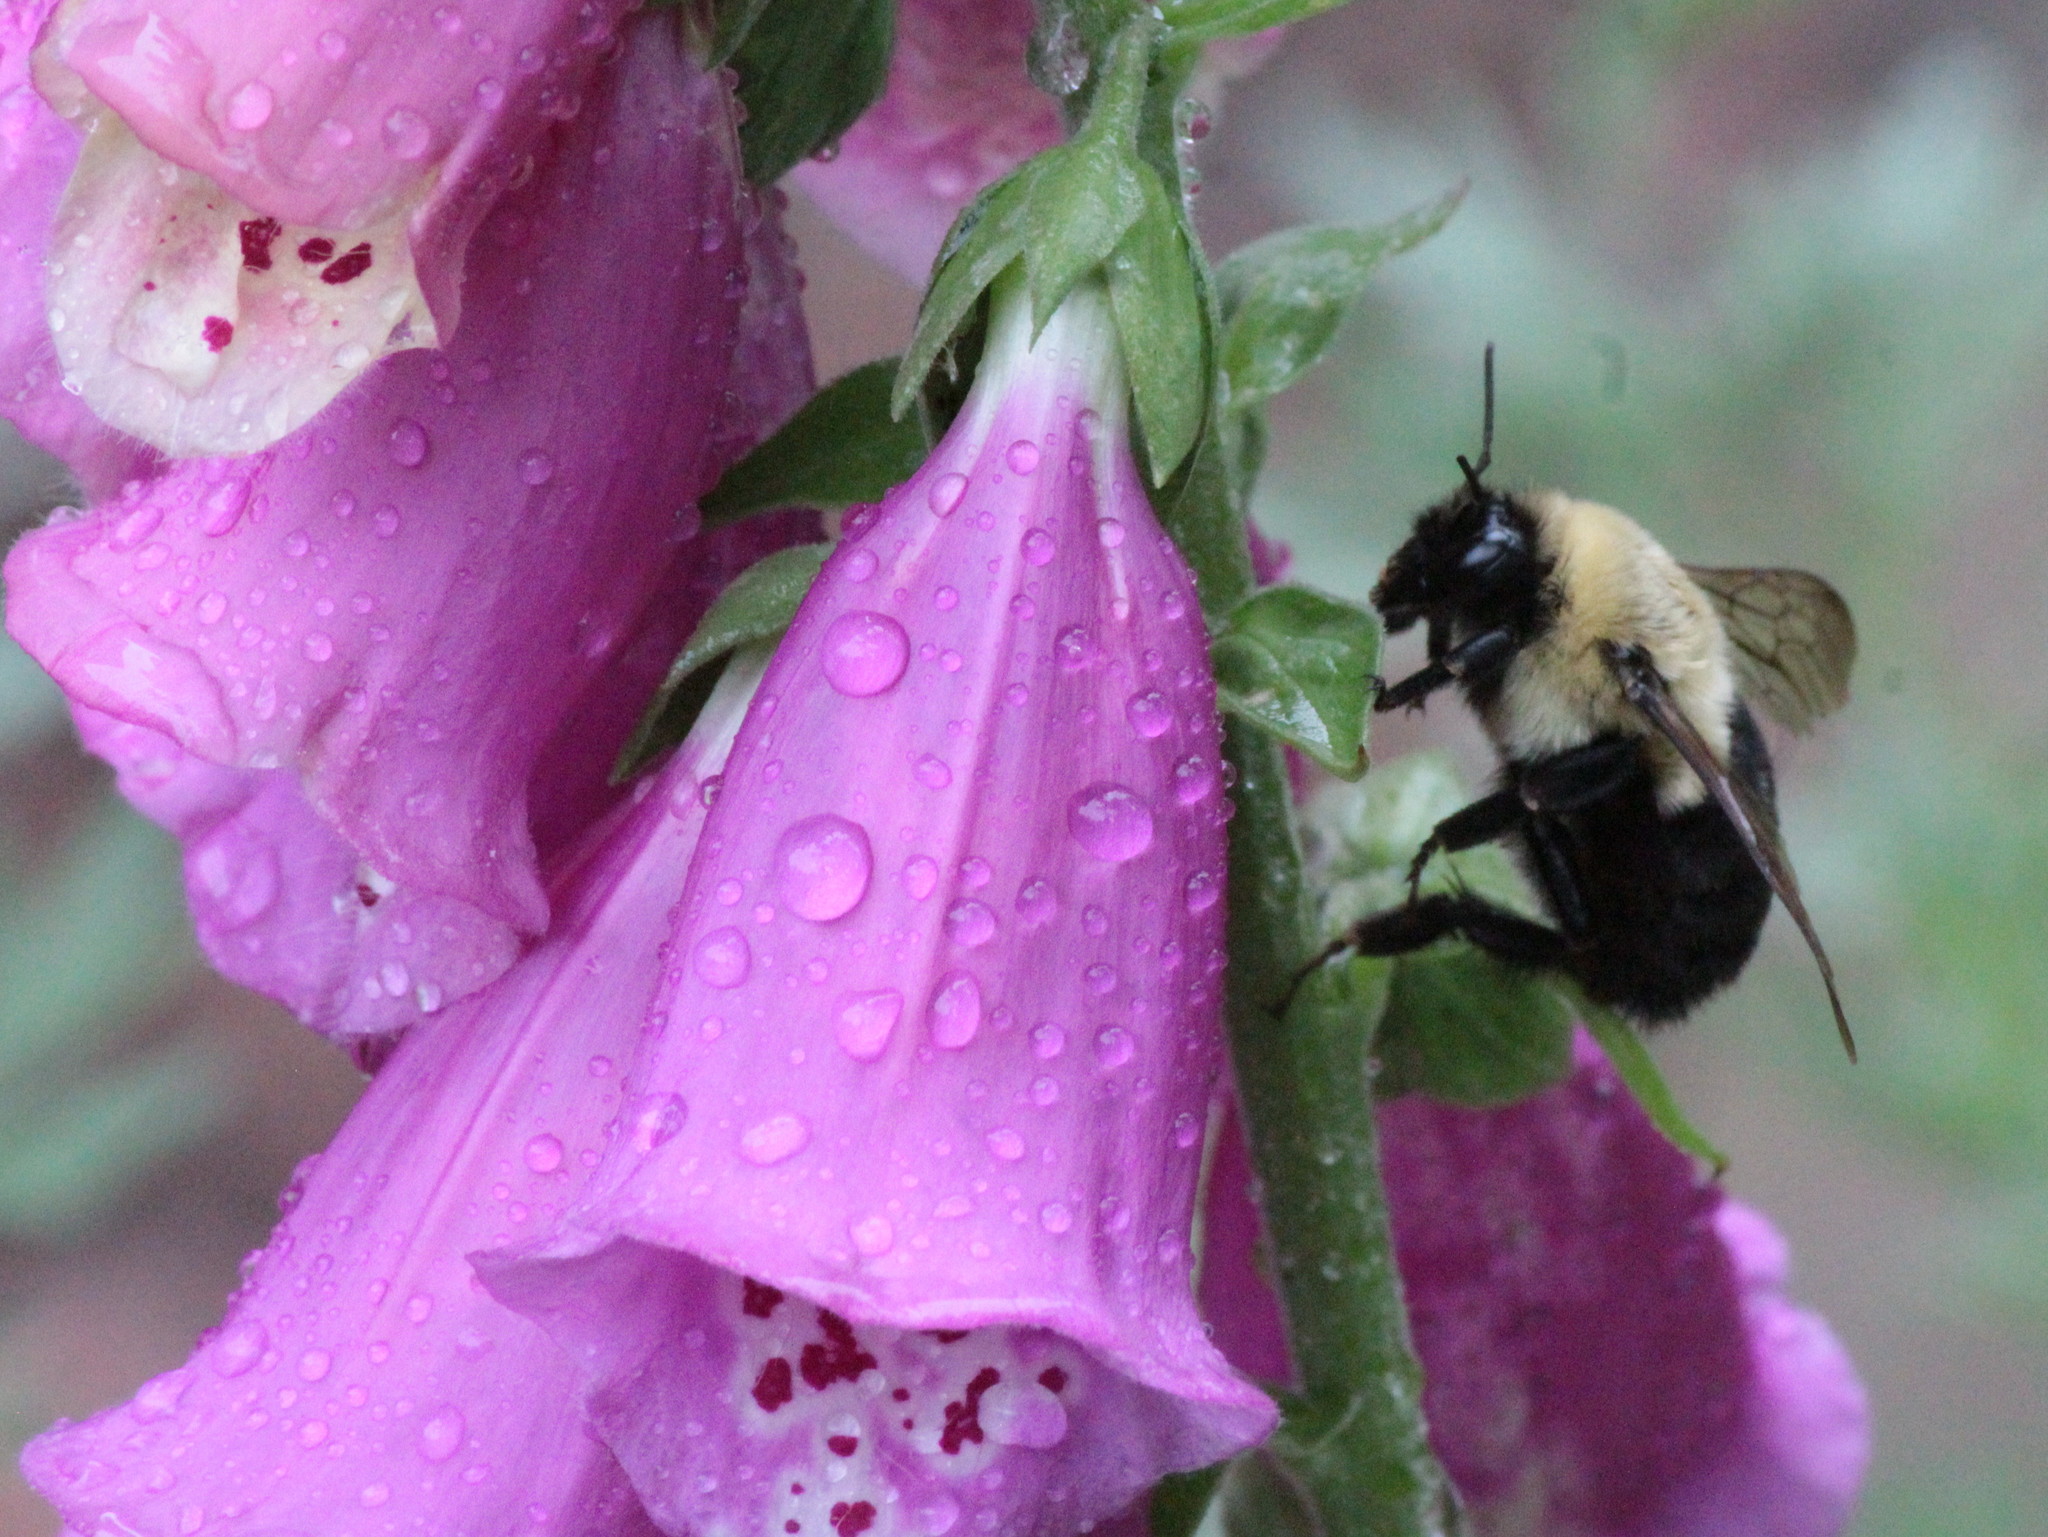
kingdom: Animalia
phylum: Arthropoda
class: Insecta
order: Hymenoptera
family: Apidae
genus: Bombus
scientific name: Bombus impatiens
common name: Common eastern bumble bee
